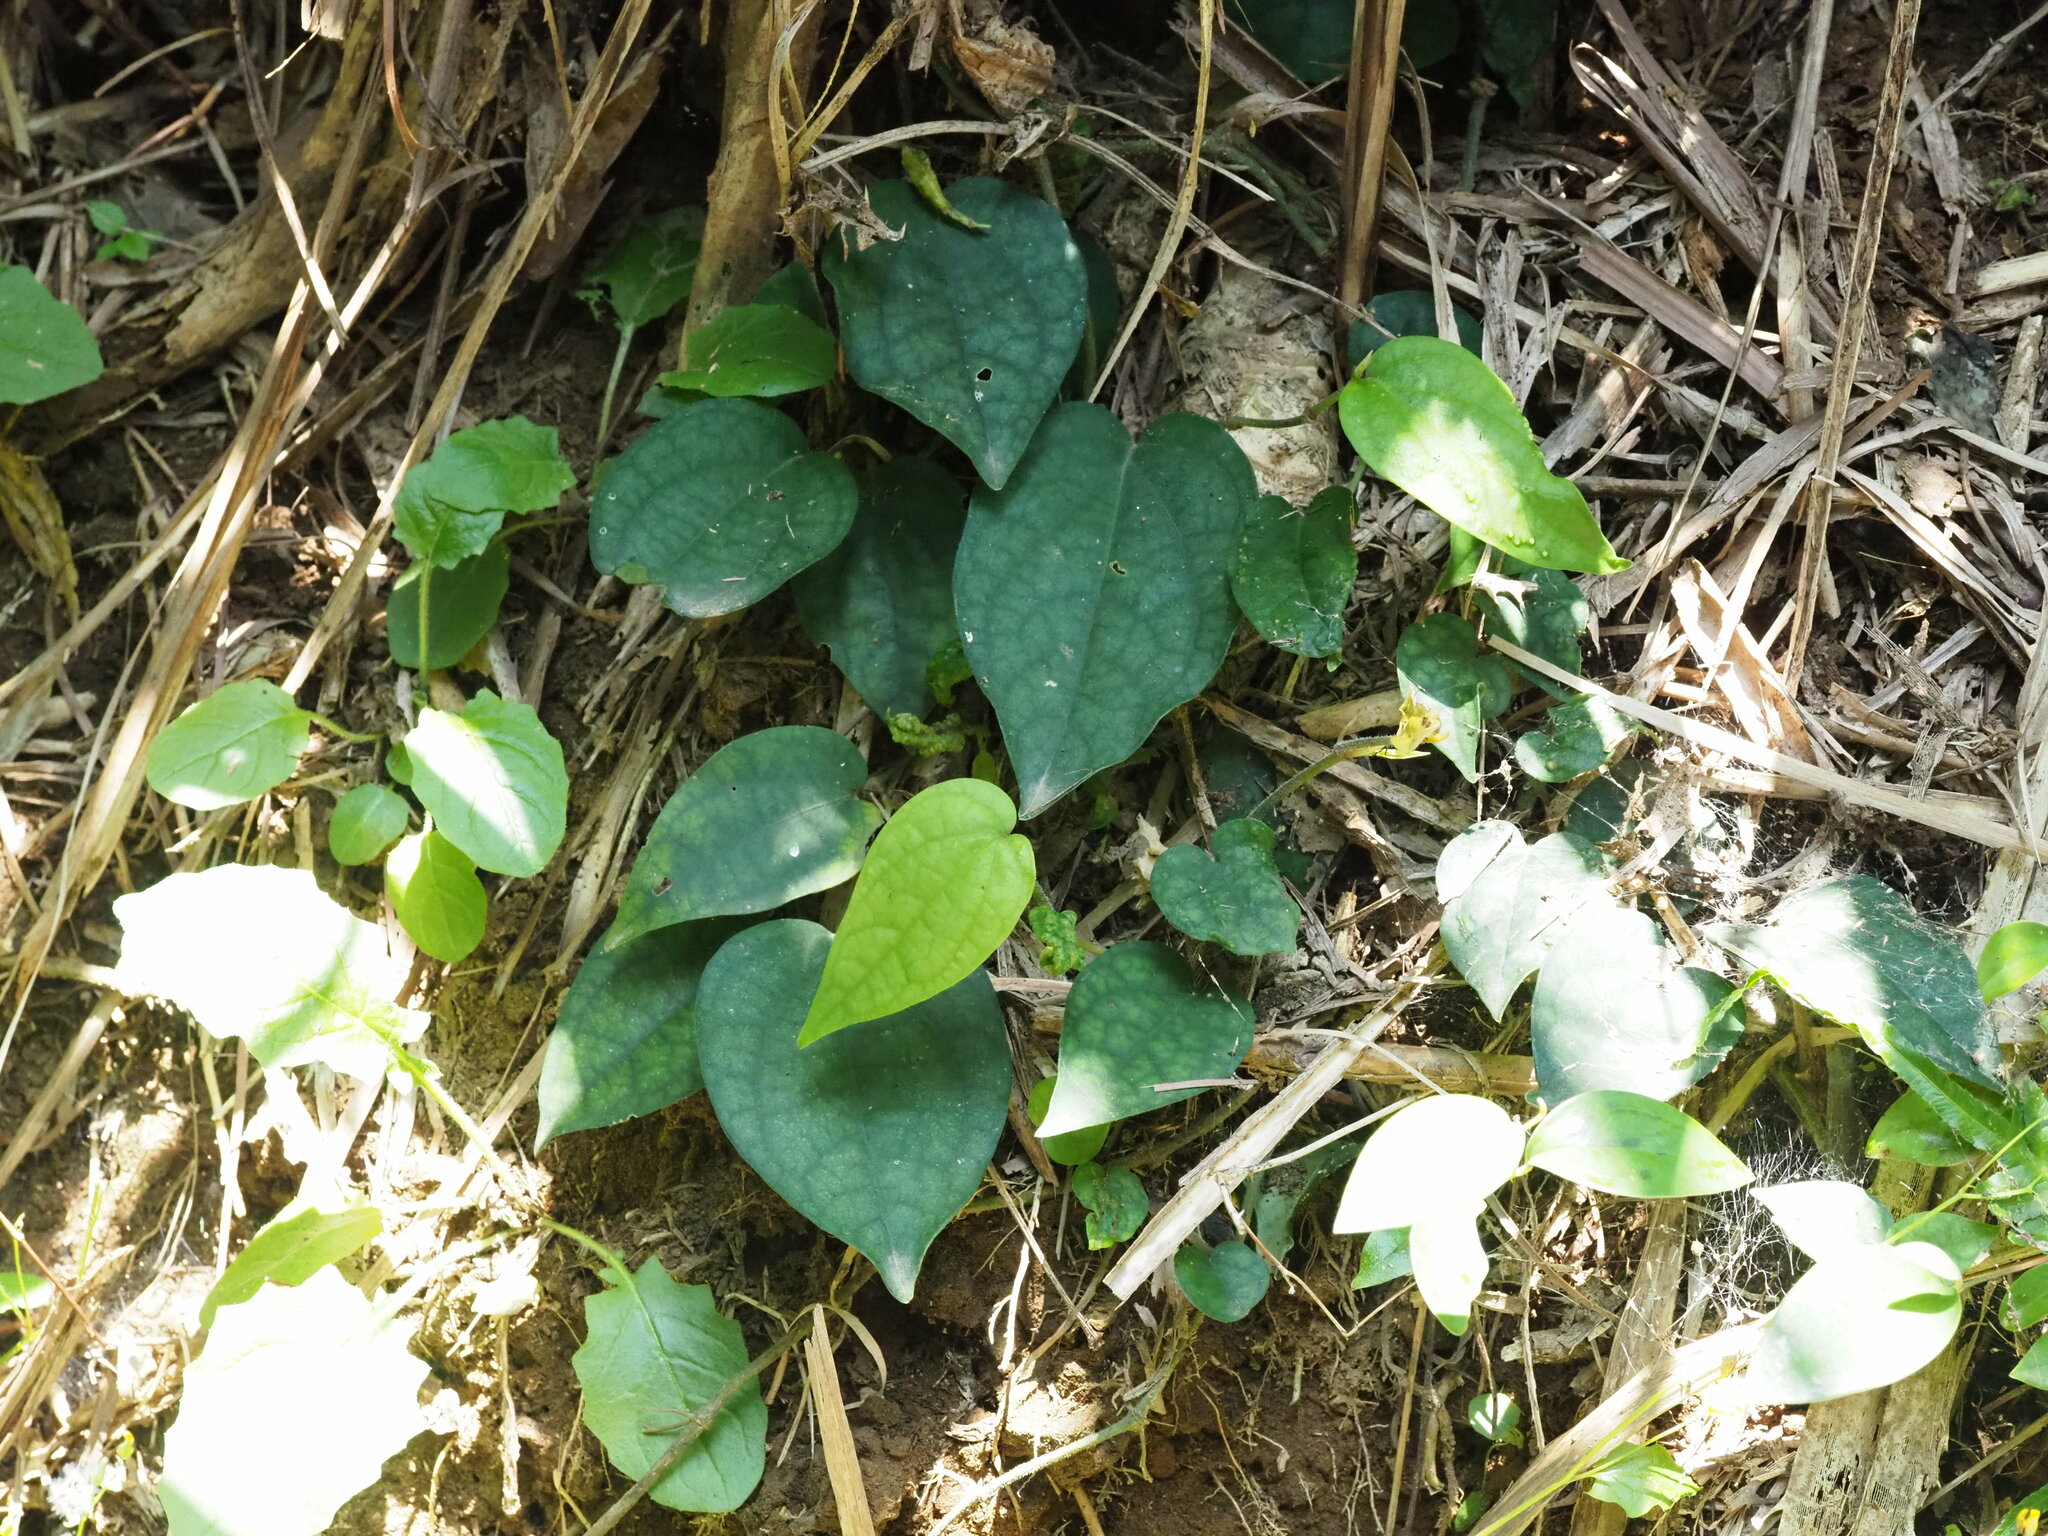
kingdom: Plantae
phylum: Tracheophyta
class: Magnoliopsida
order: Piperales
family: Piperaceae
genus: Piper
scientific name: Piper kadsura
